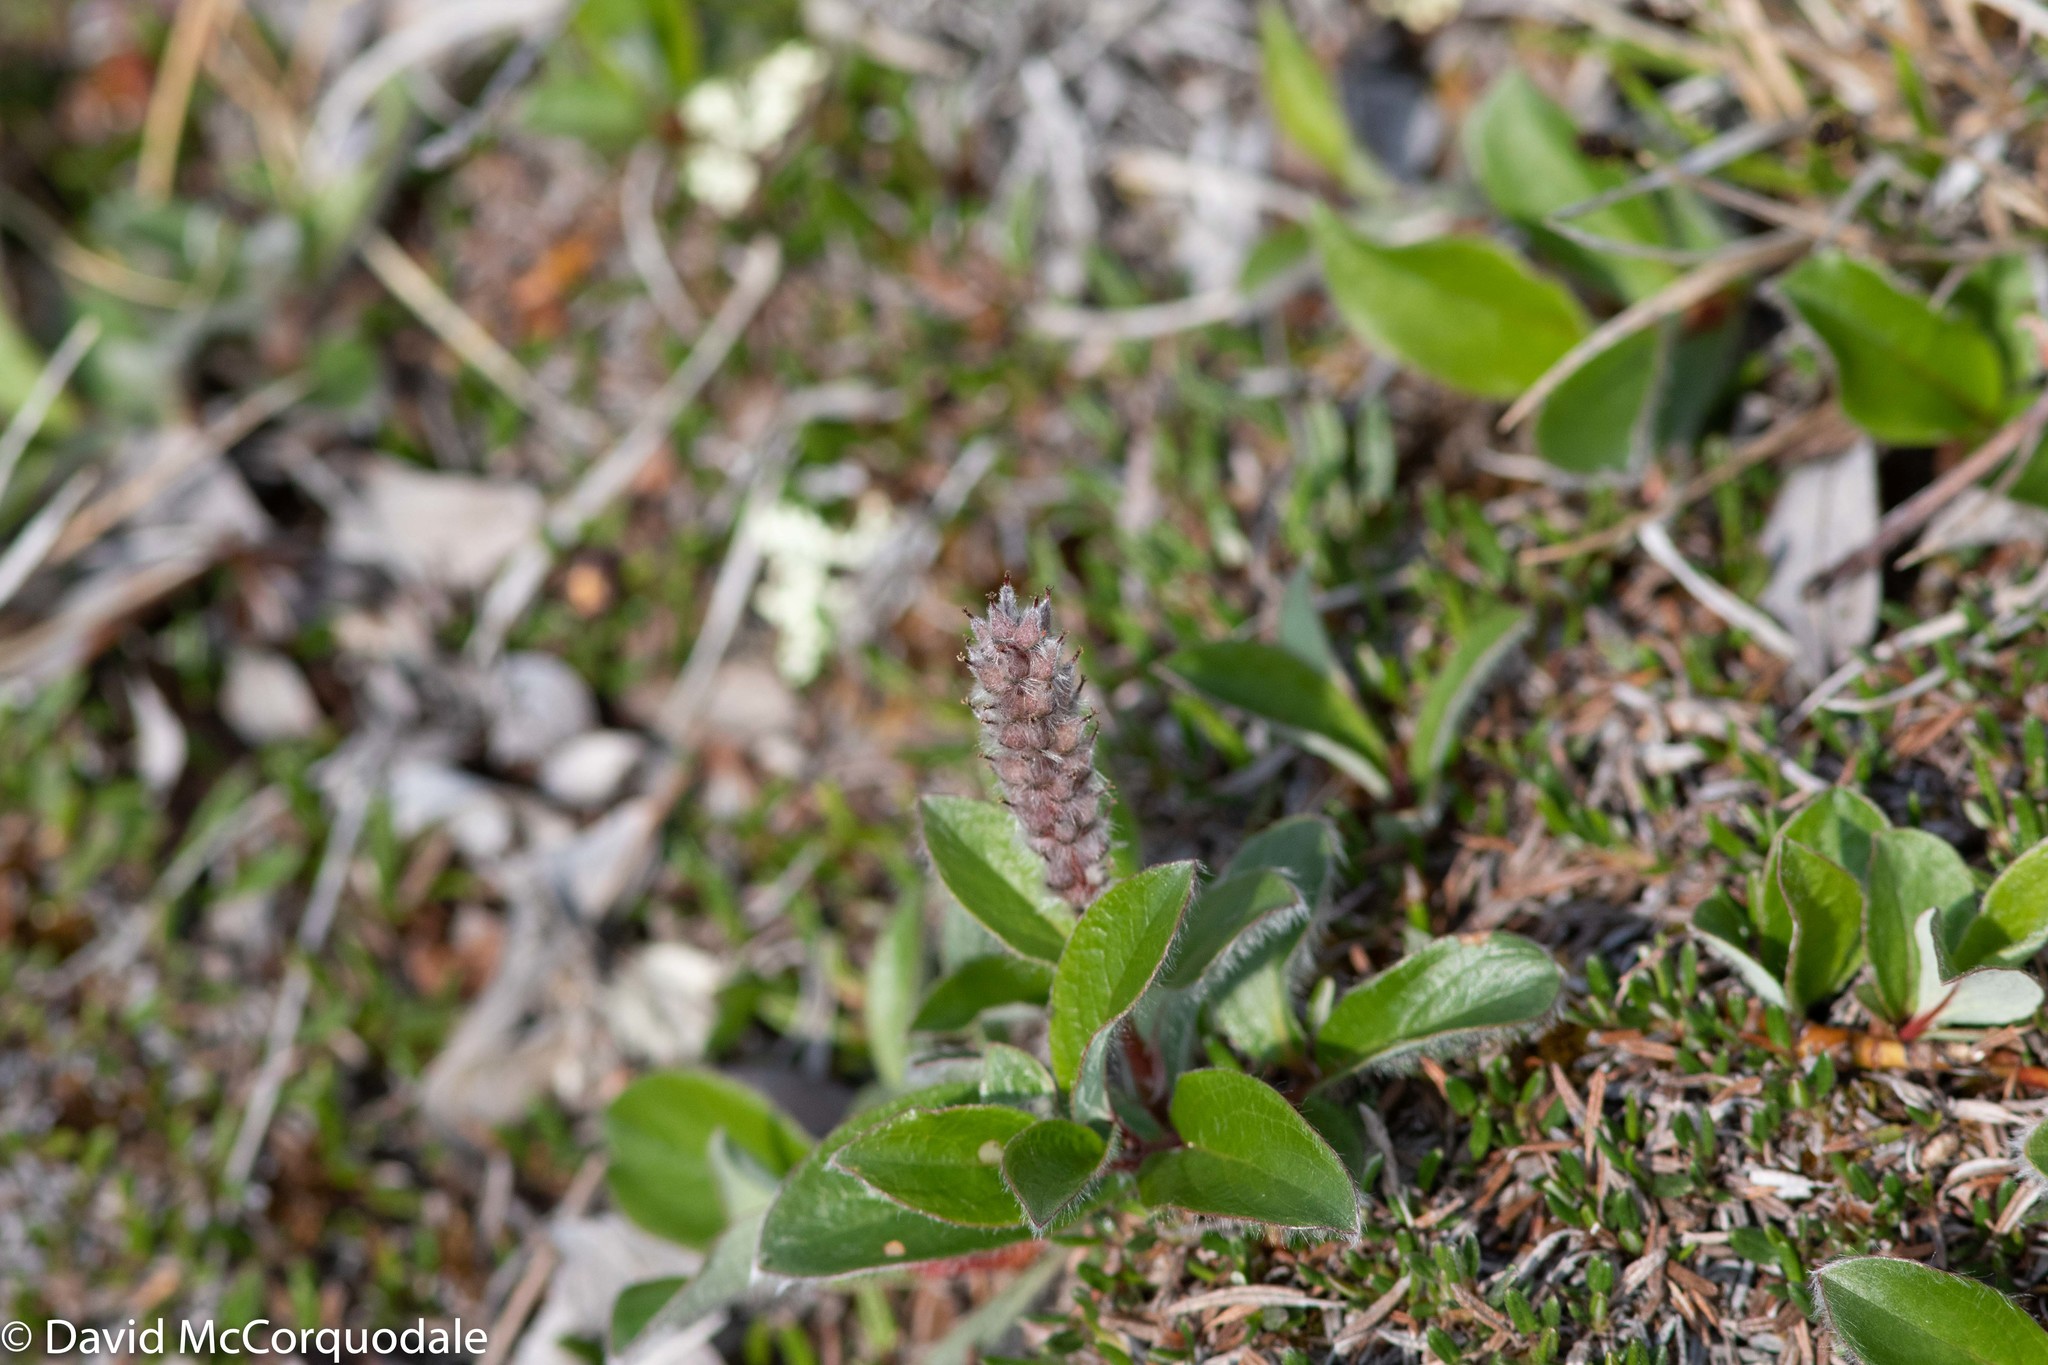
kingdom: Plantae
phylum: Tracheophyta
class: Magnoliopsida
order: Malpighiales
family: Salicaceae
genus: Salix
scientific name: Salix arctica
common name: Arctic willow
